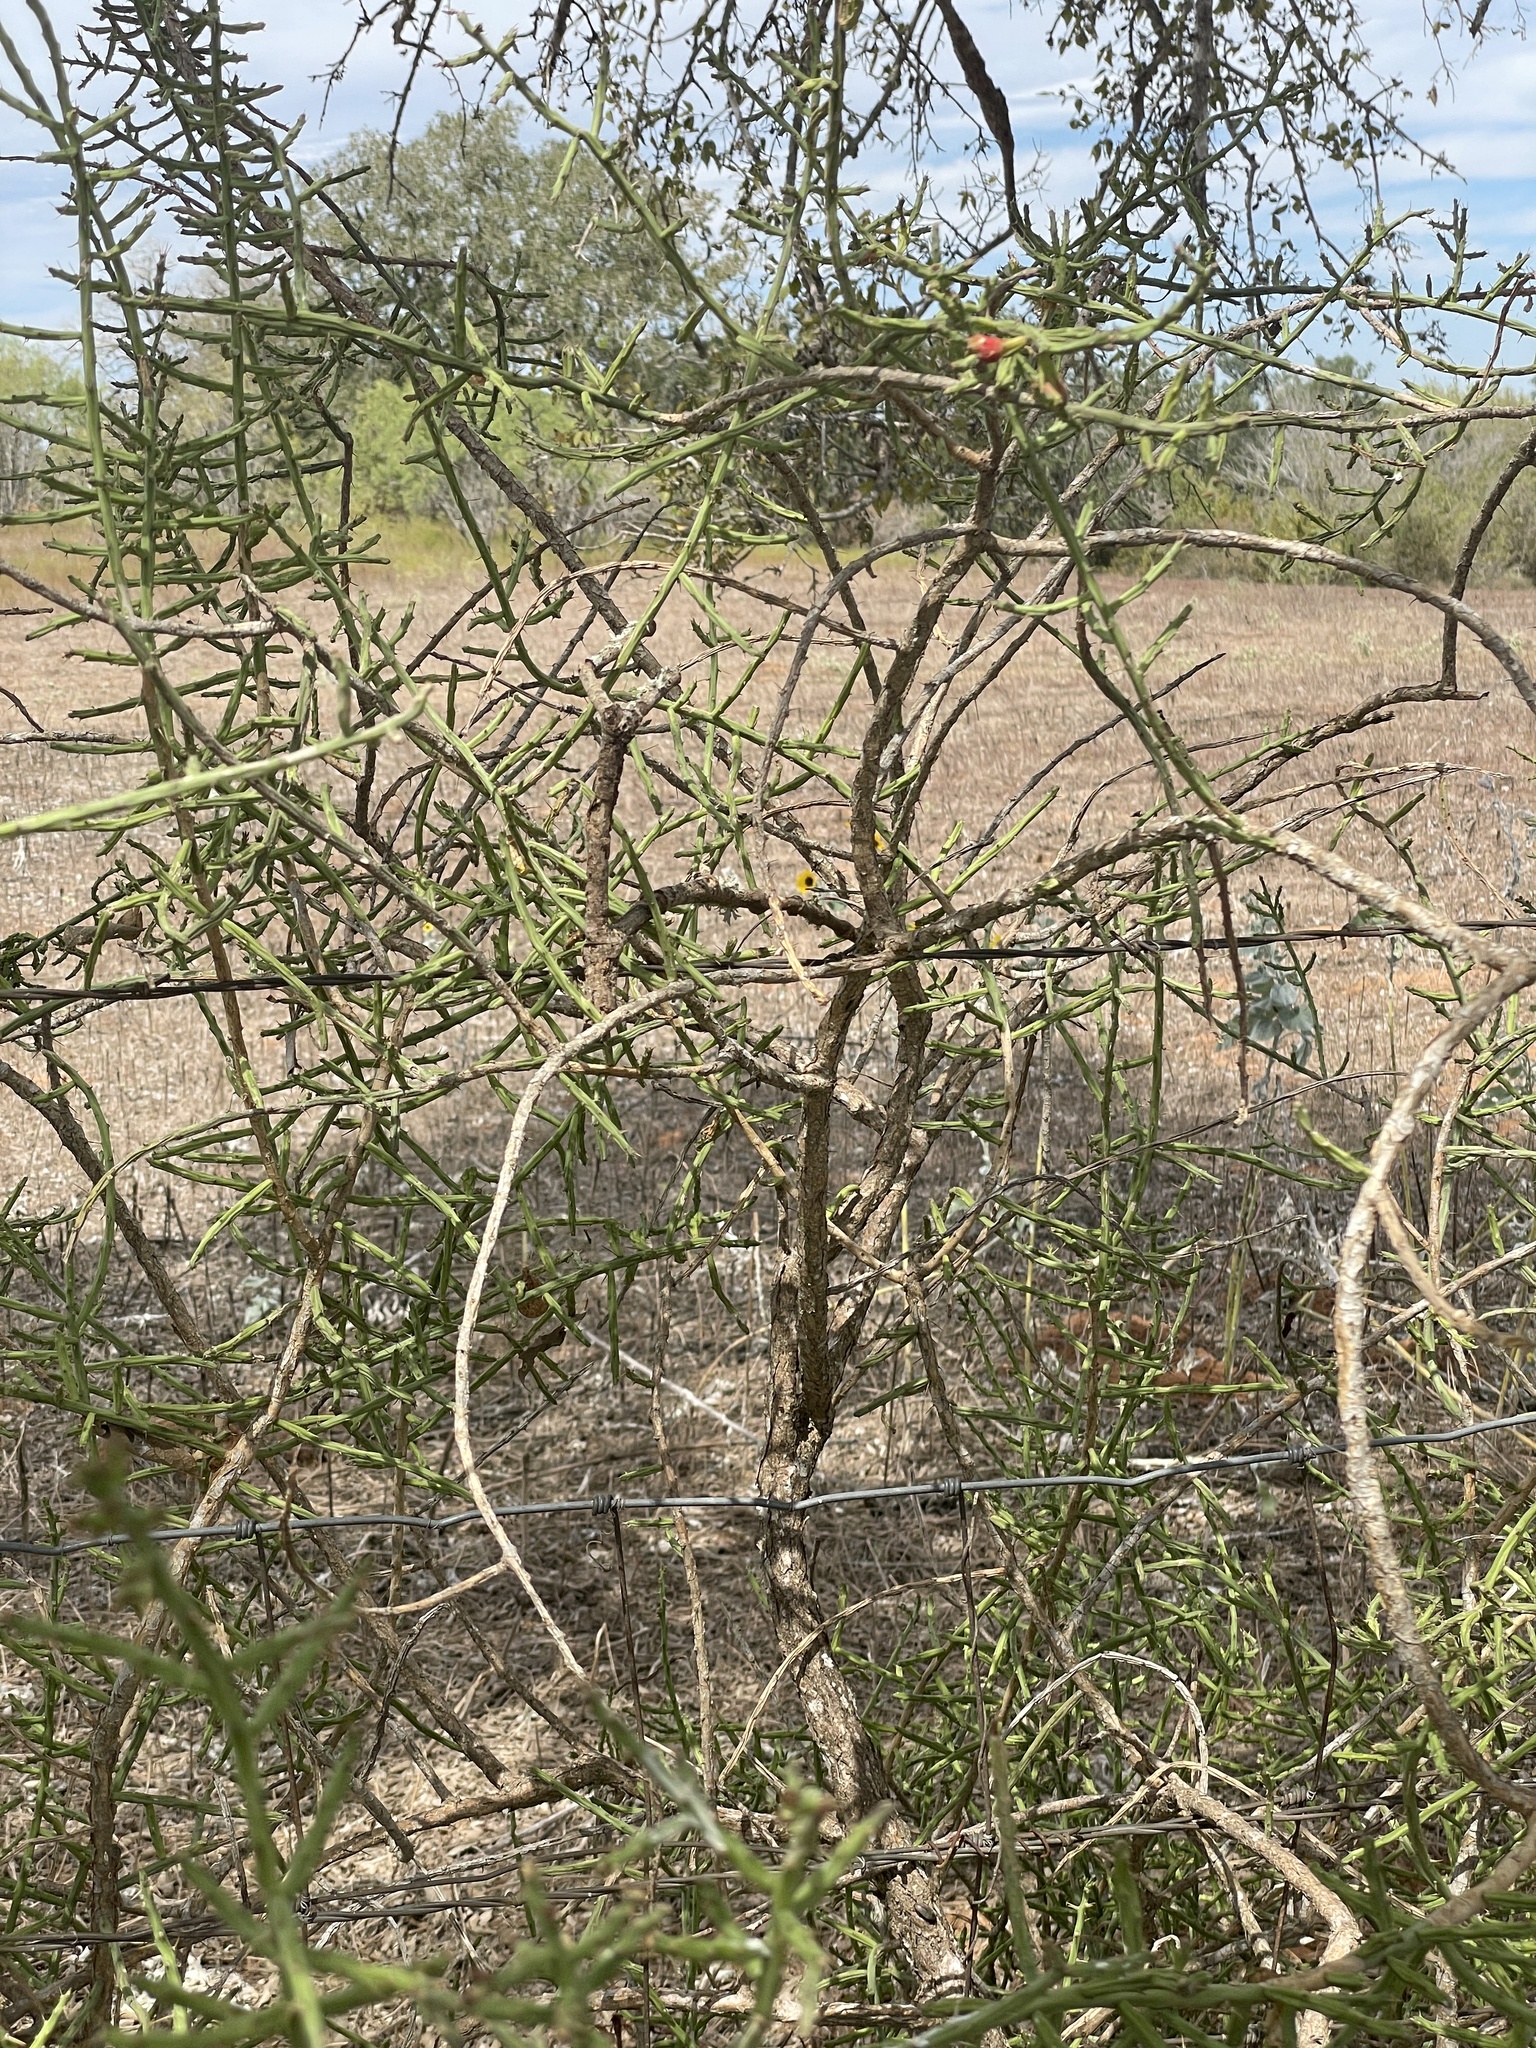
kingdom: Plantae
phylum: Tracheophyta
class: Magnoliopsida
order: Caryophyllales
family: Cactaceae
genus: Cylindropuntia
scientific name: Cylindropuntia leptocaulis
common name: Christmas cactus
